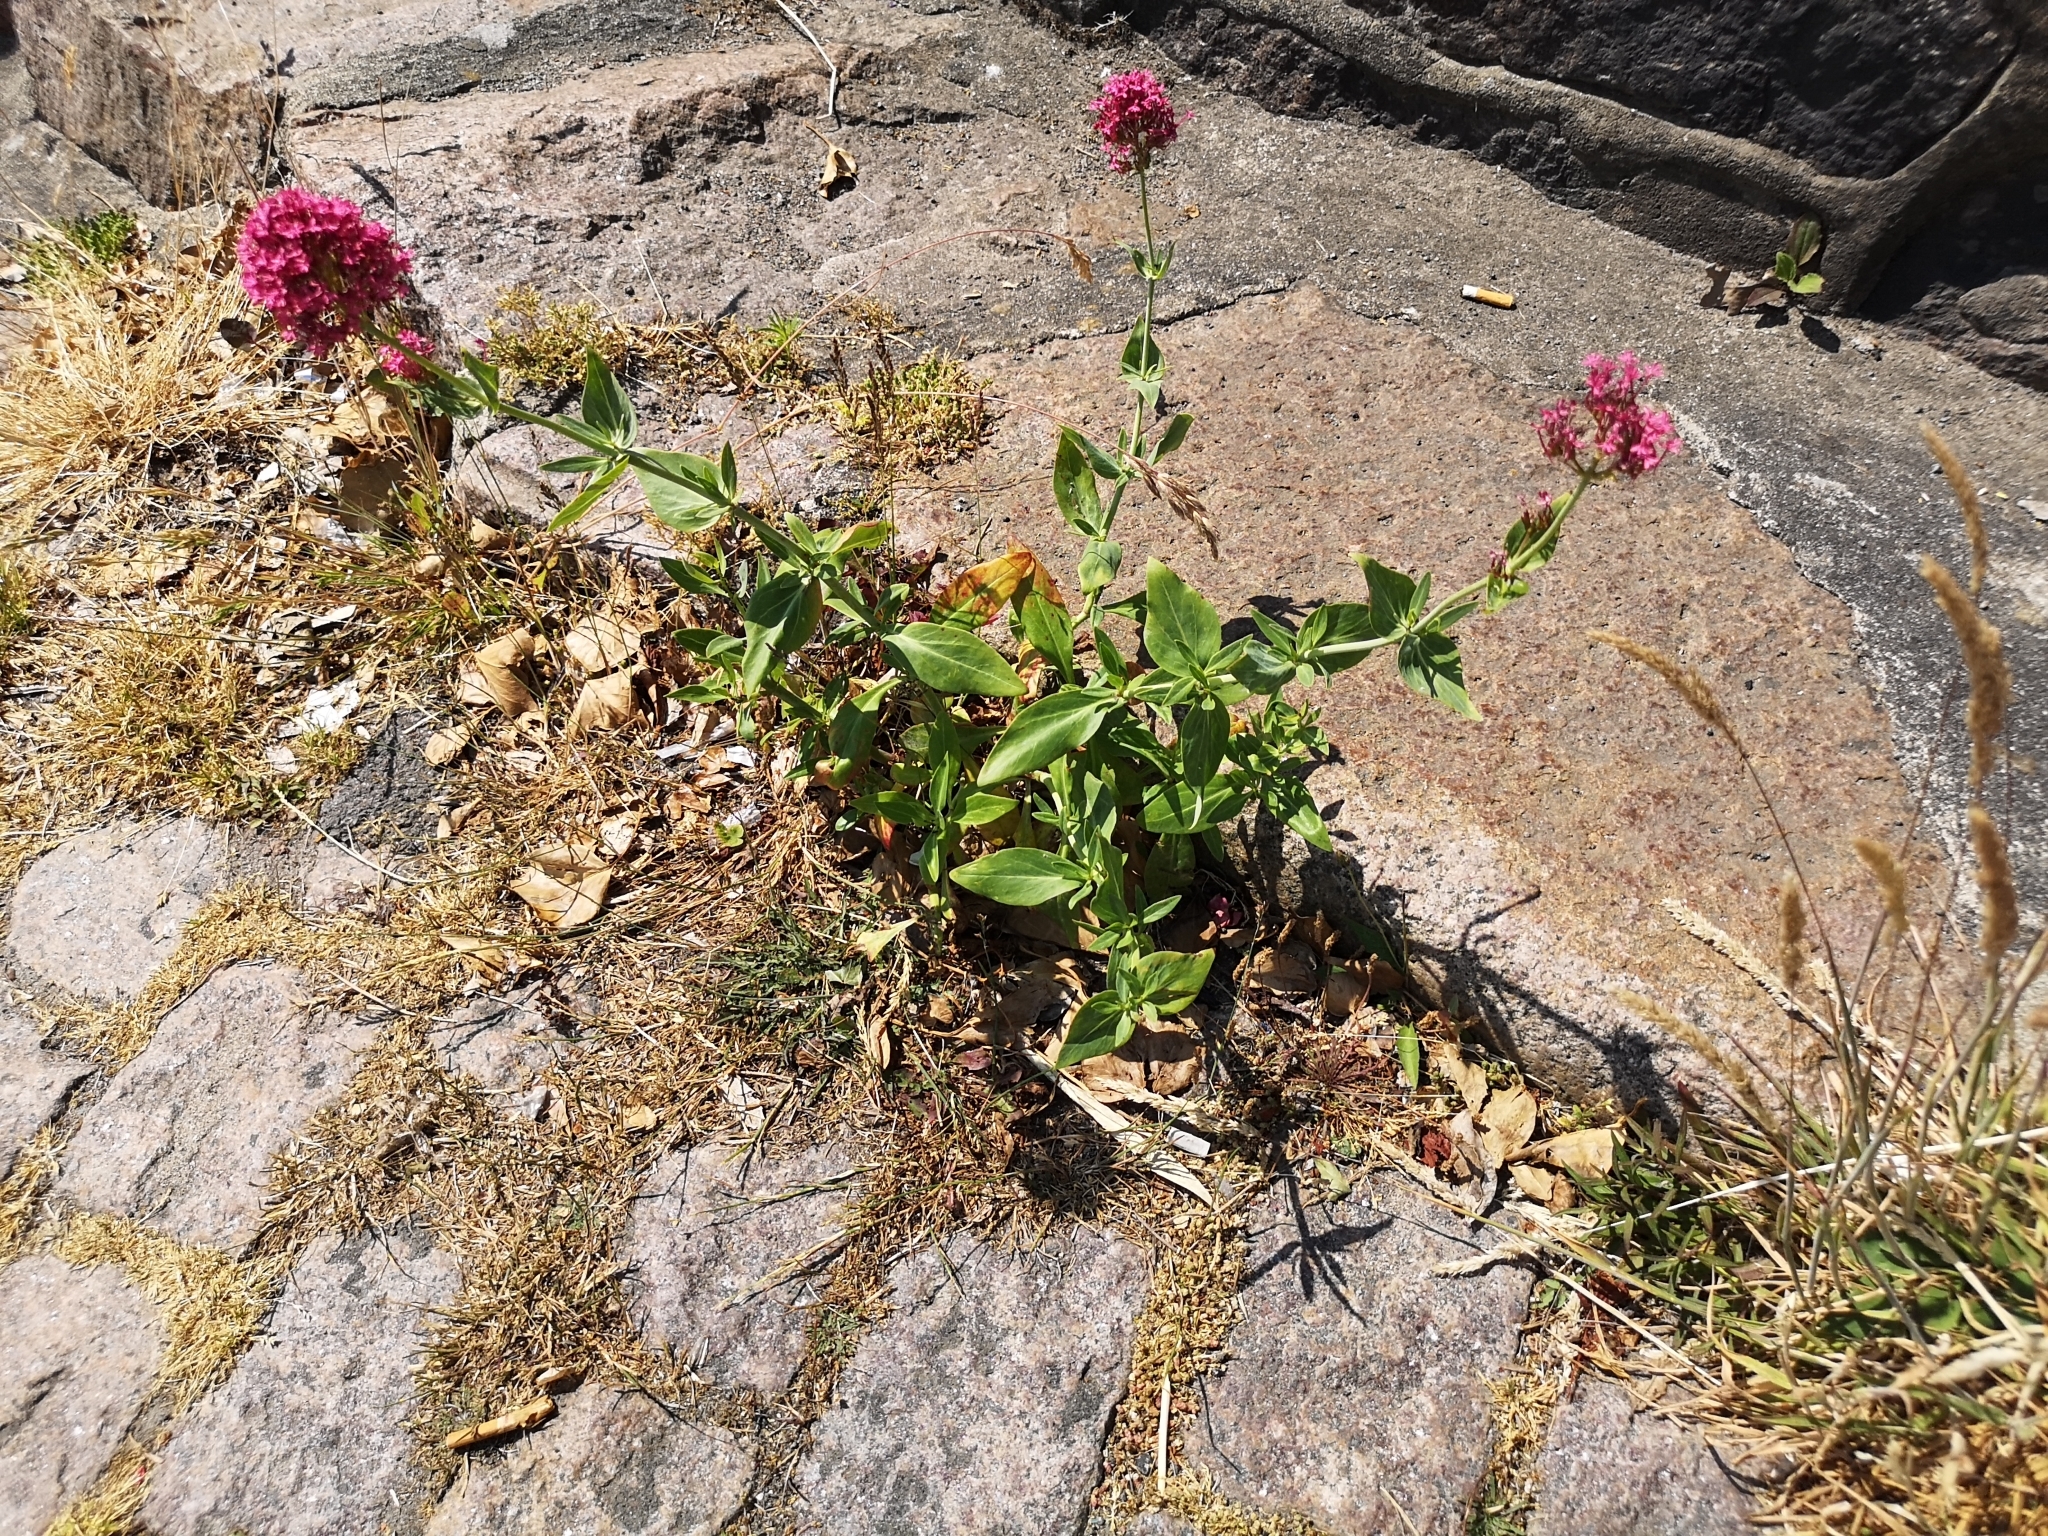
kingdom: Plantae
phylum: Tracheophyta
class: Magnoliopsida
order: Dipsacales
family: Caprifoliaceae
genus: Centranthus
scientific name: Centranthus ruber
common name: Red valerian
